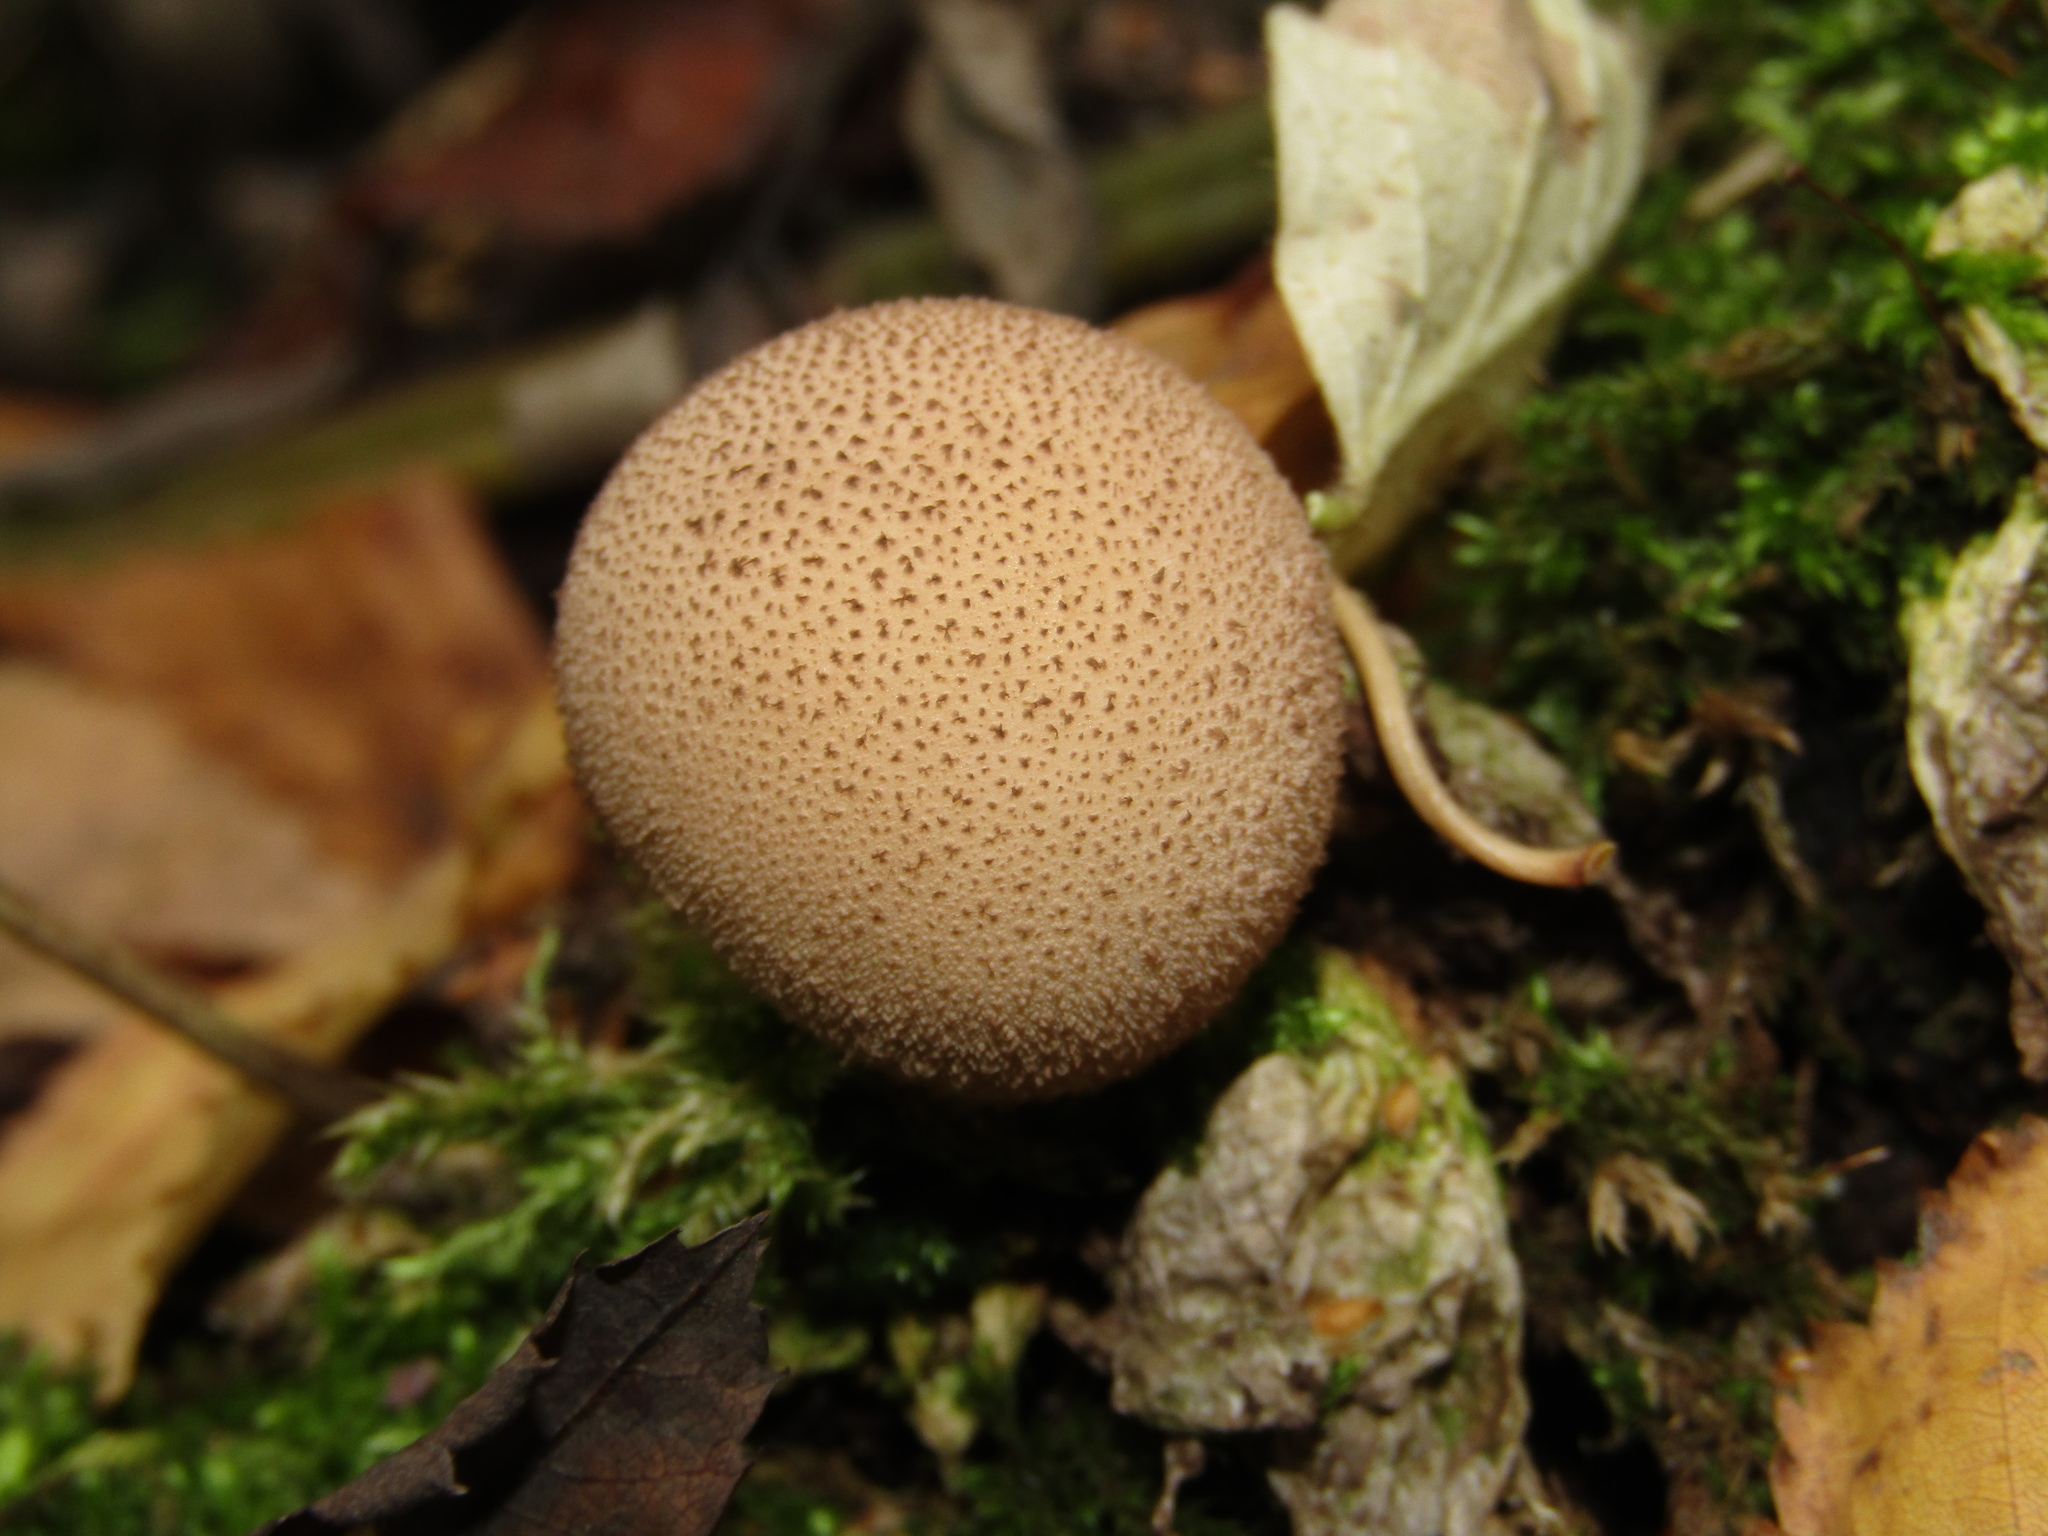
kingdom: Fungi
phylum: Basidiomycota
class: Agaricomycetes
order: Agaricales
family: Lycoperdaceae
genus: Apioperdon
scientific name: Apioperdon pyriforme
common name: Pear-shaped puffball
